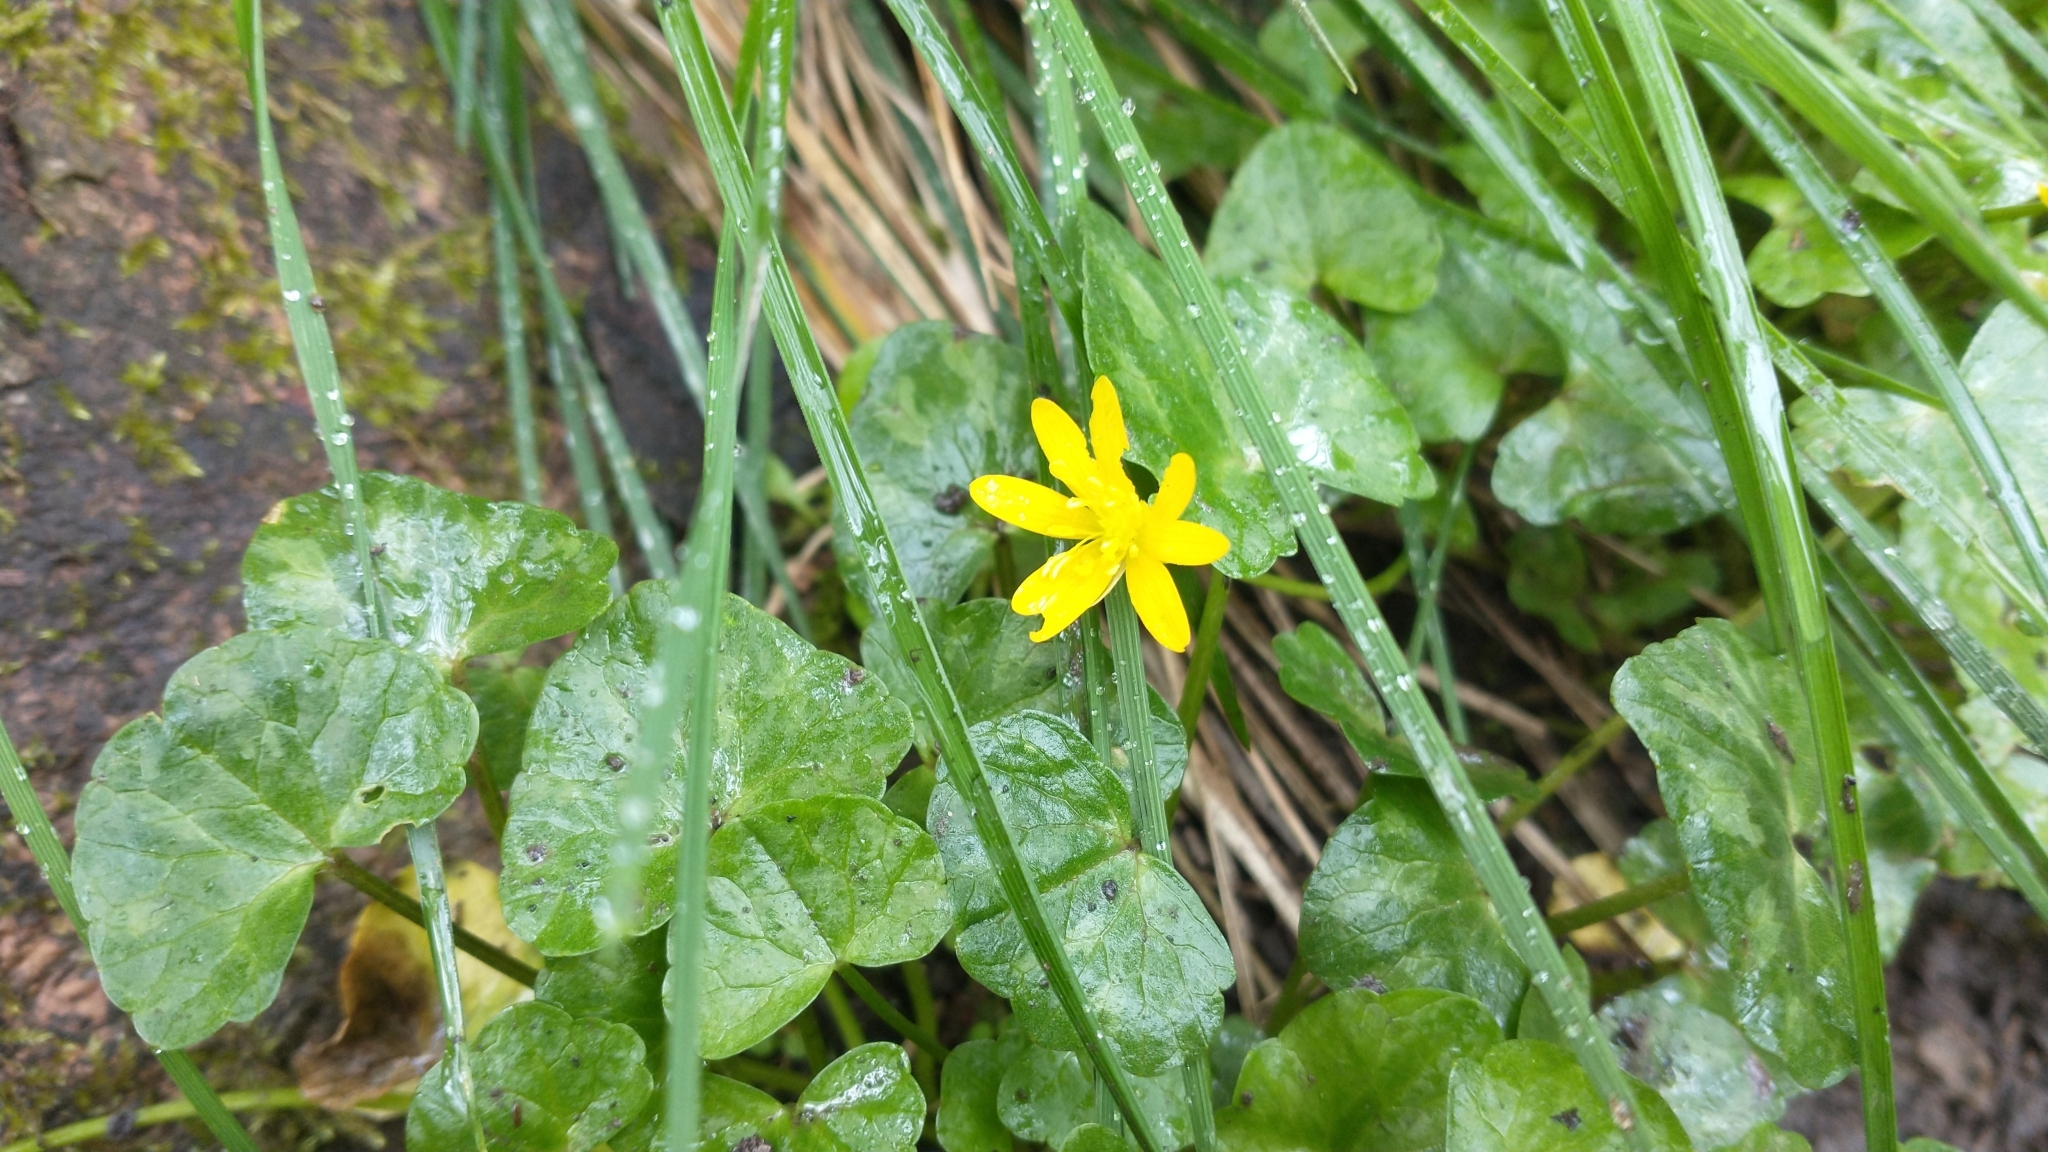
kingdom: Plantae
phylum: Tracheophyta
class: Magnoliopsida
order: Ranunculales
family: Ranunculaceae
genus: Ficaria
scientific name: Ficaria verna
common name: Lesser celandine
